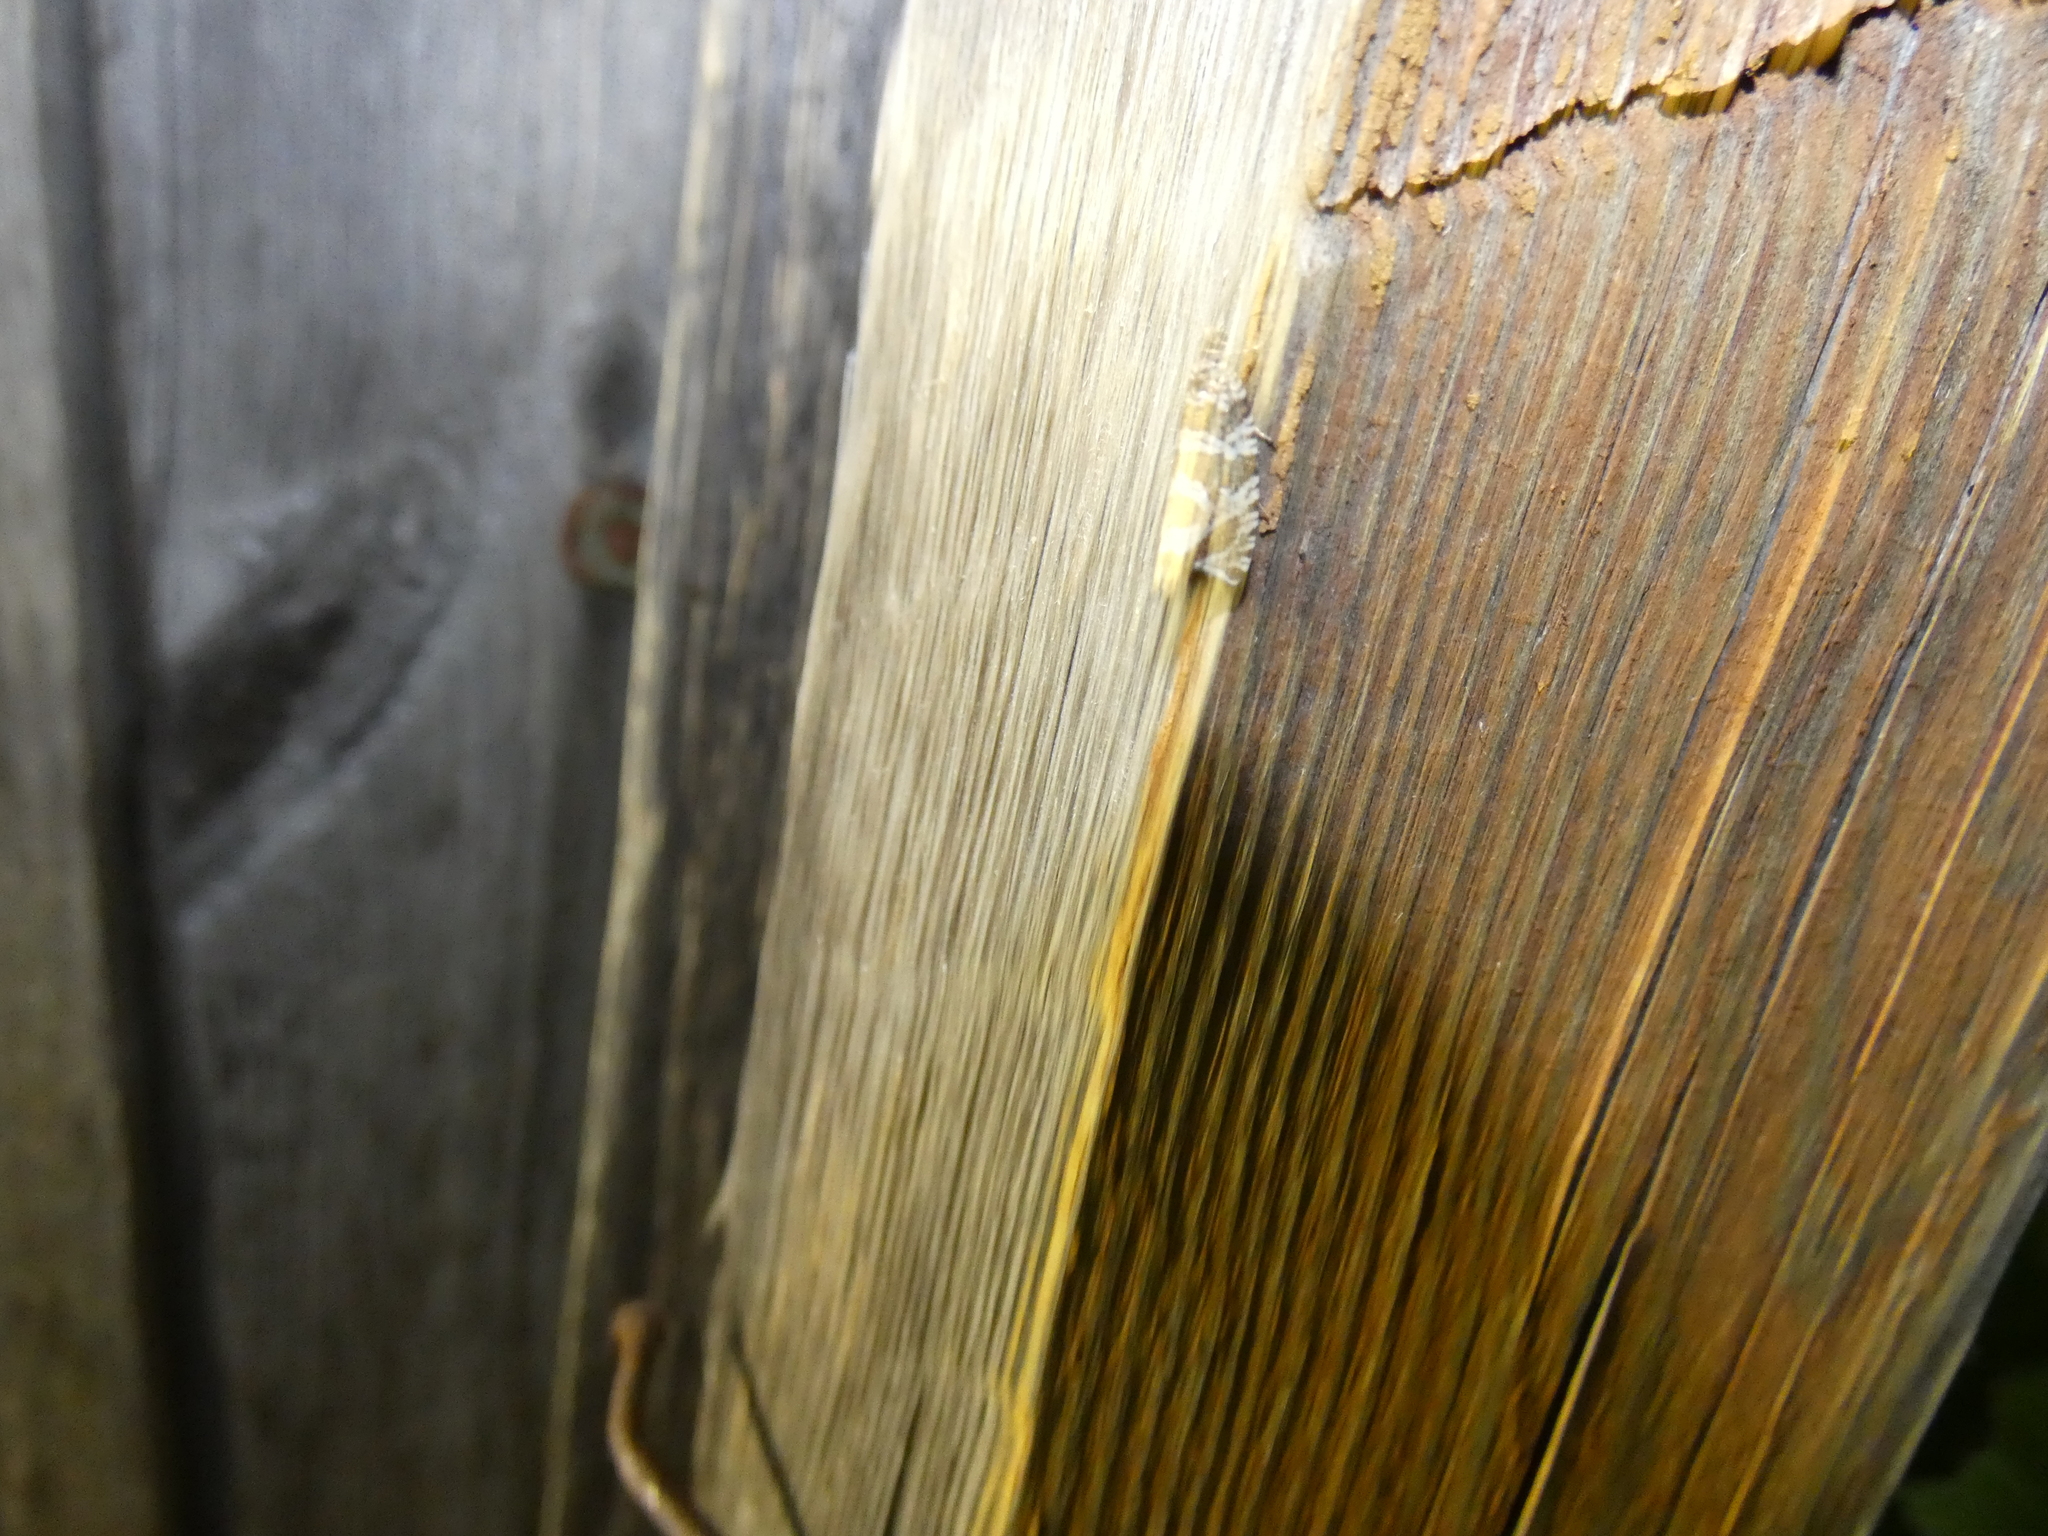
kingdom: Animalia
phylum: Arthropoda
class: Insecta
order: Lepidoptera
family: Tortricidae
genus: Syricoris
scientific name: Syricoris rivulana
